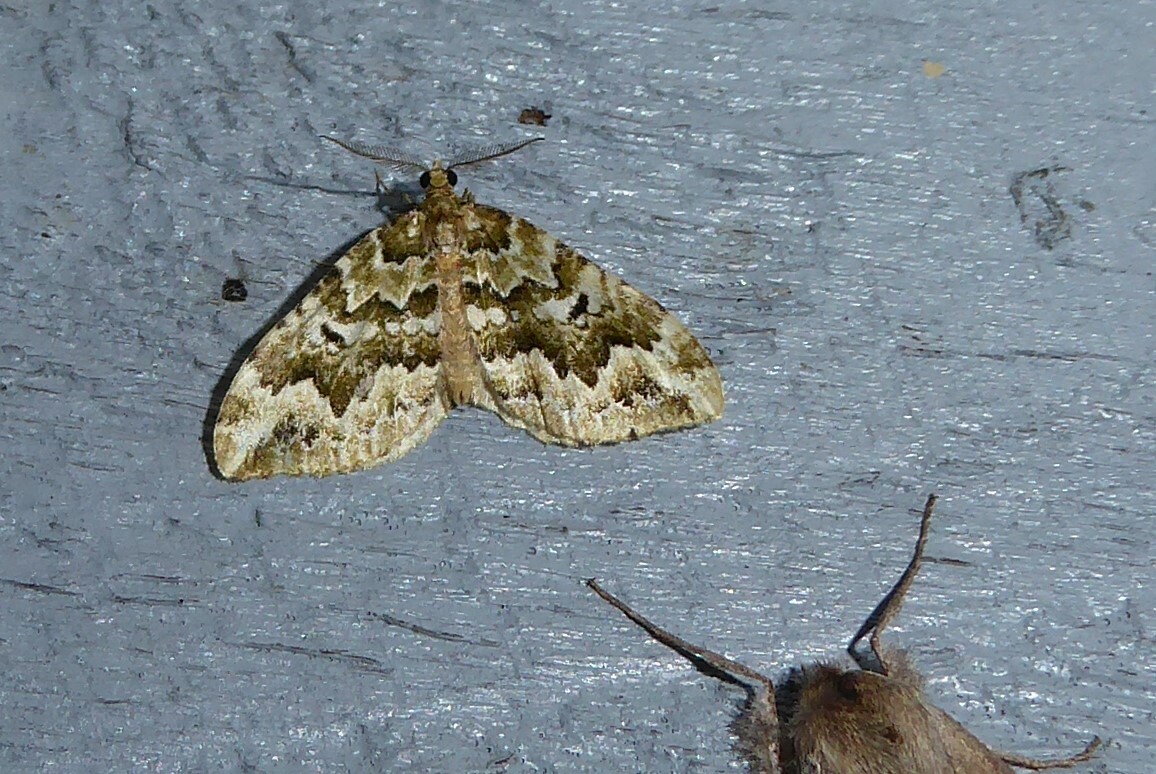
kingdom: Animalia
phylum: Arthropoda
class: Insecta
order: Lepidoptera
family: Geometridae
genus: Asaphodes
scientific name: Asaphodes beata
